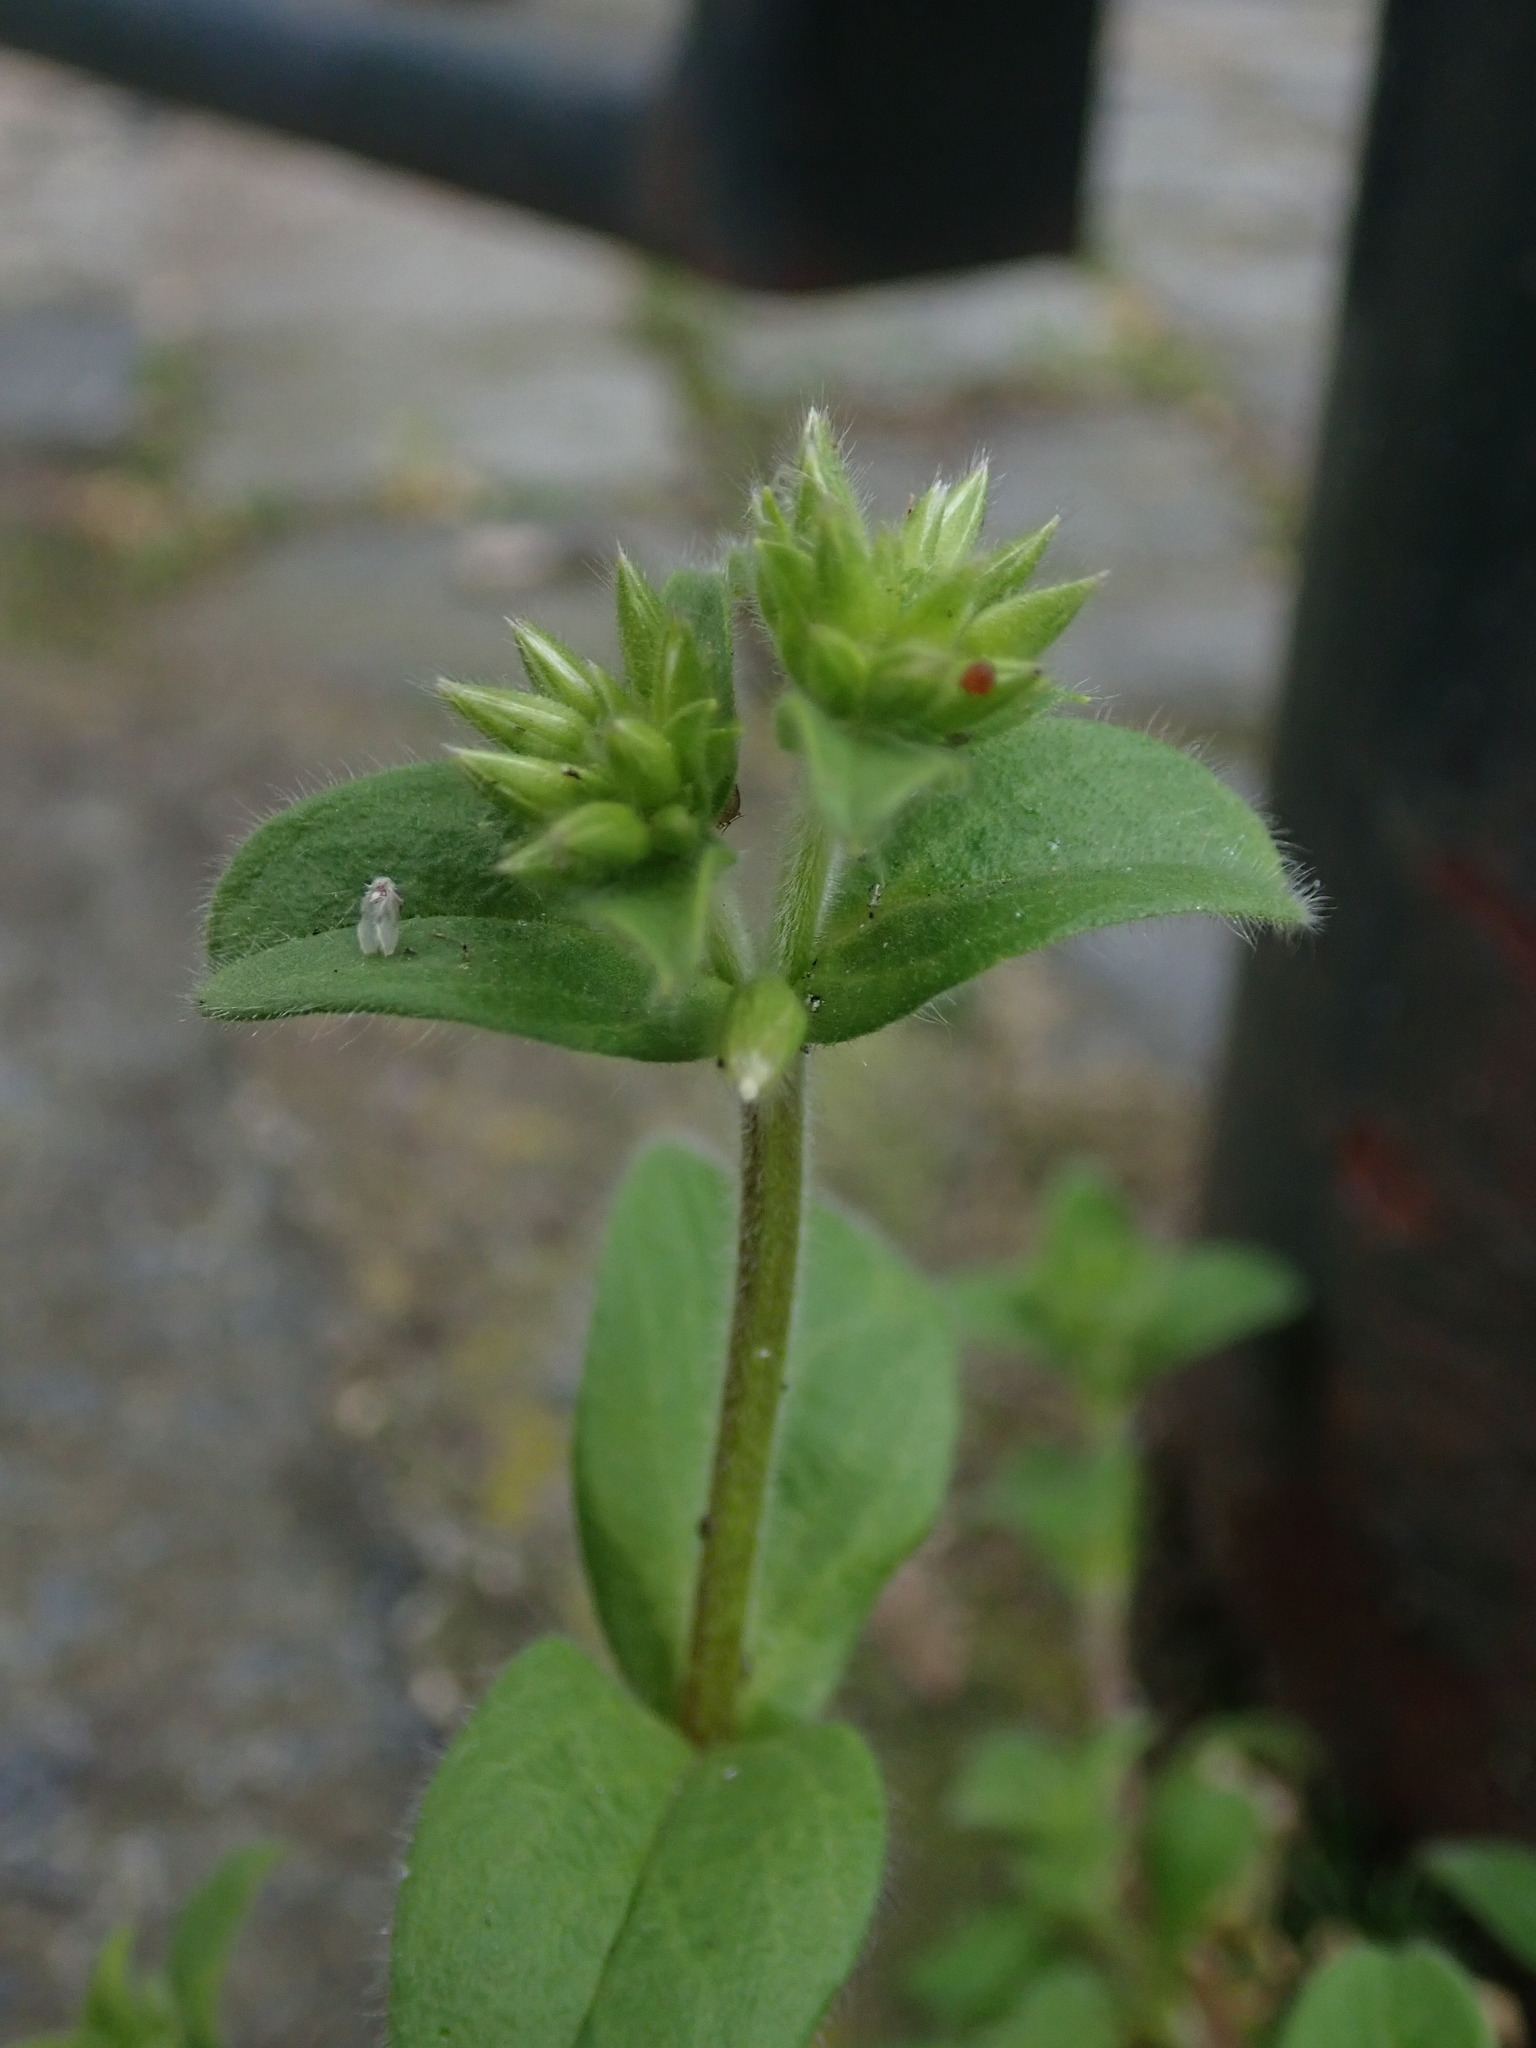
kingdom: Plantae
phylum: Tracheophyta
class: Magnoliopsida
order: Caryophyllales
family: Caryophyllaceae
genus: Cerastium
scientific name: Cerastium glomeratum
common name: Sticky chickweed
